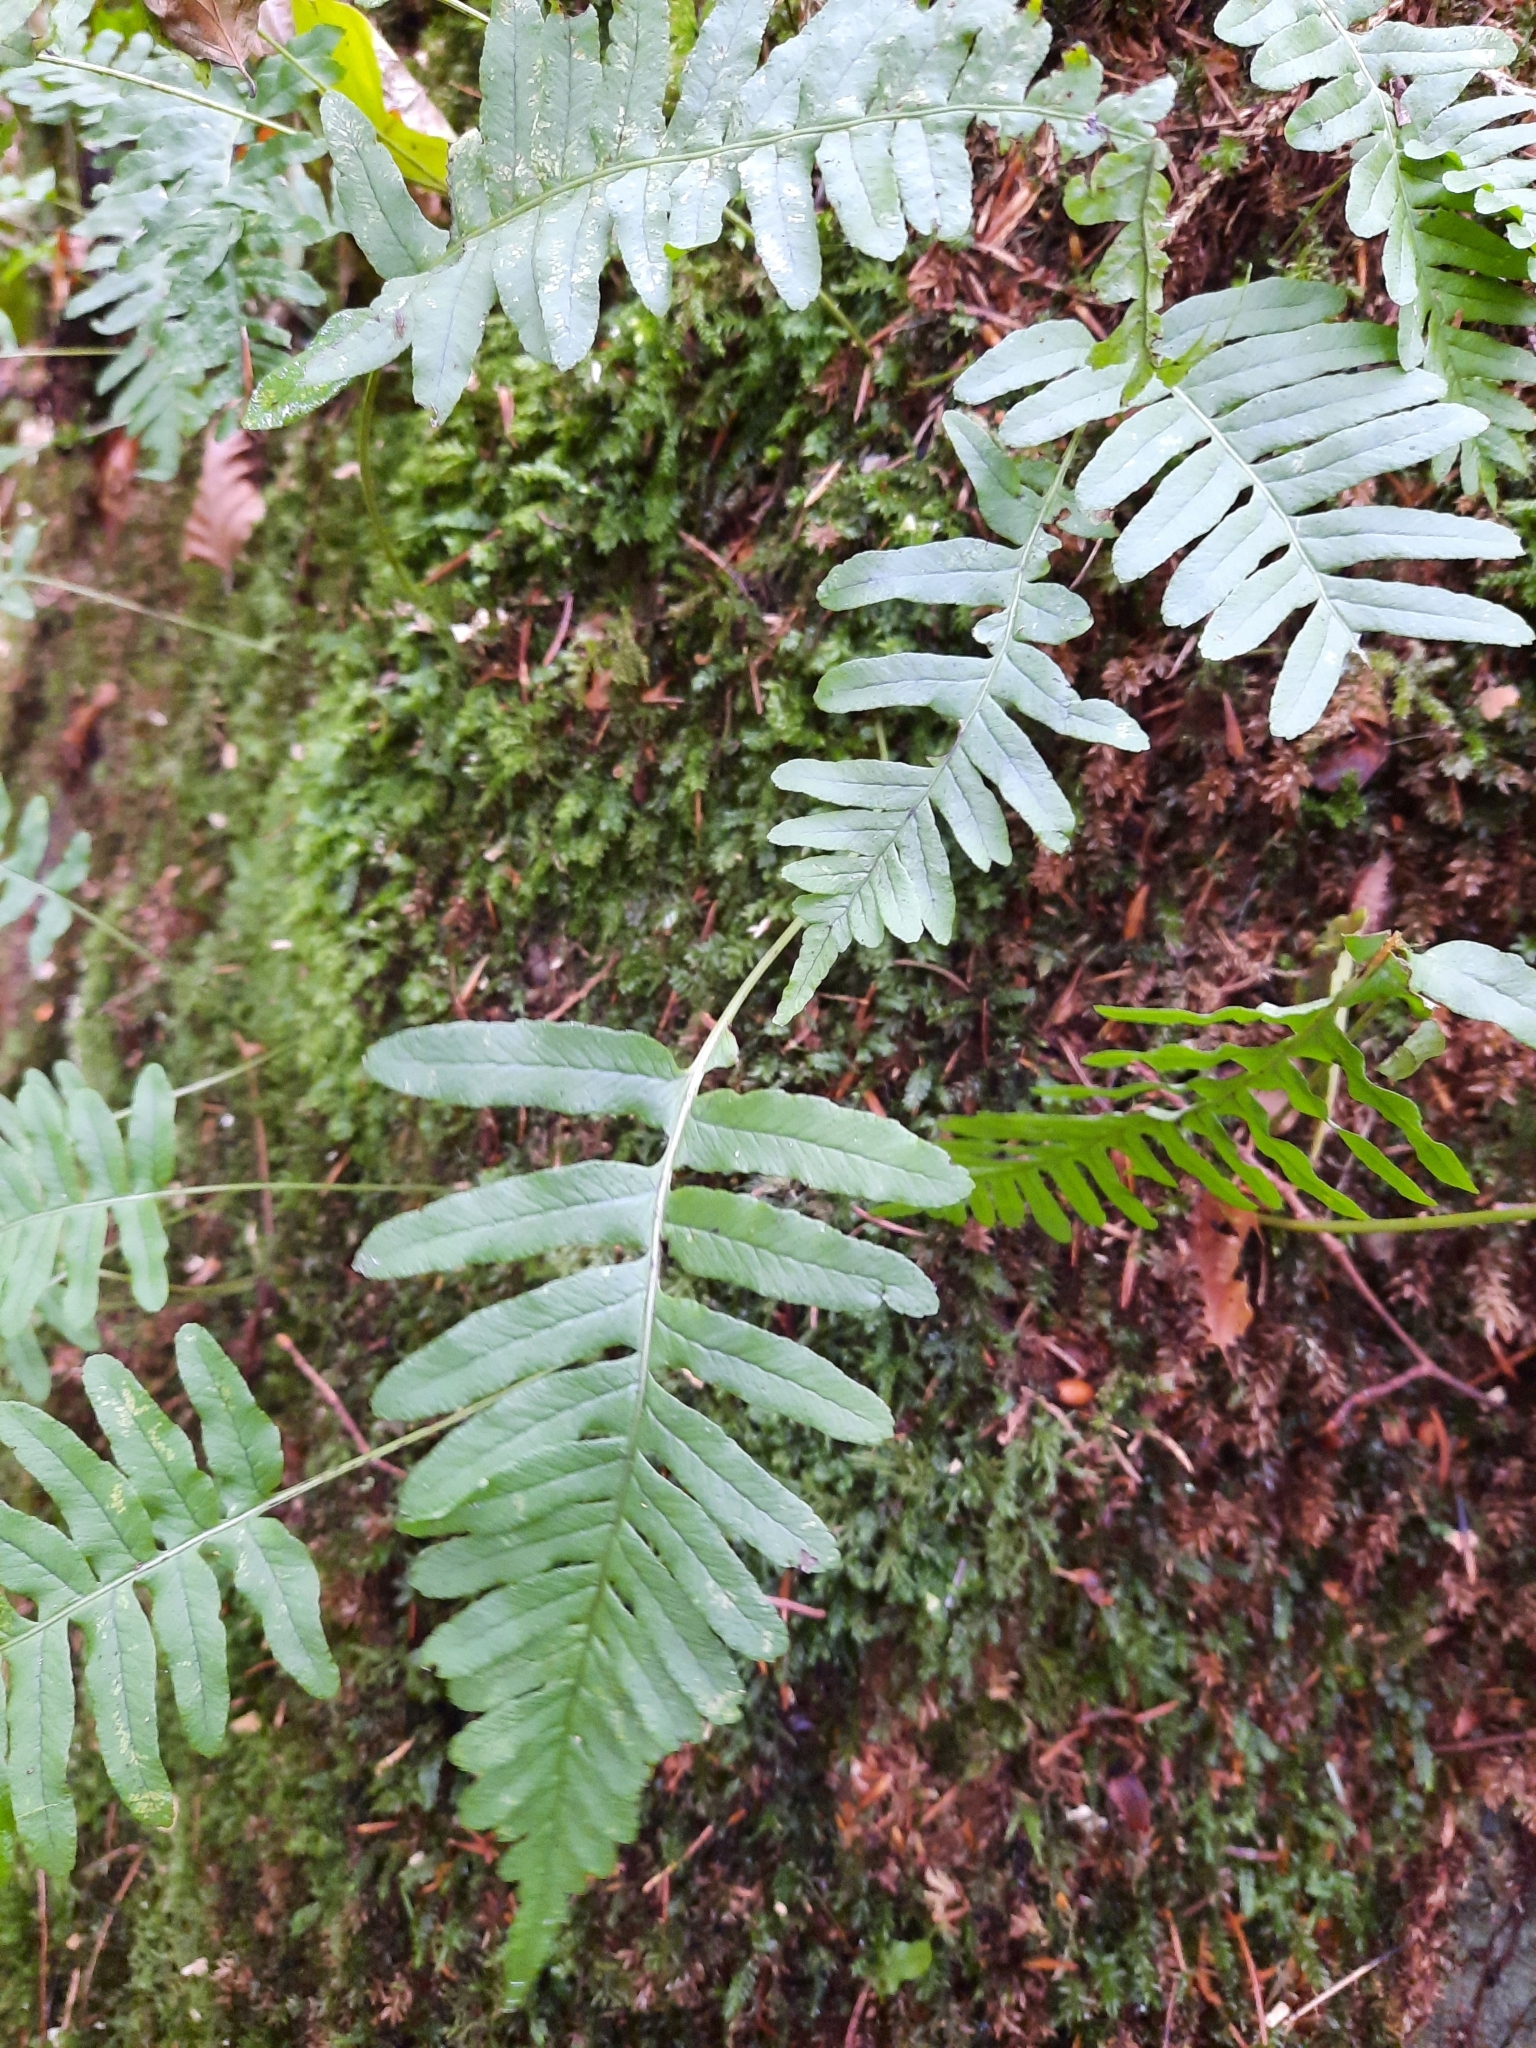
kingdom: Plantae
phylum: Tracheophyta
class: Polypodiopsida
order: Polypodiales
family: Polypodiaceae
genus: Polypodium
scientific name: Polypodium vulgare
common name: Common polypody
